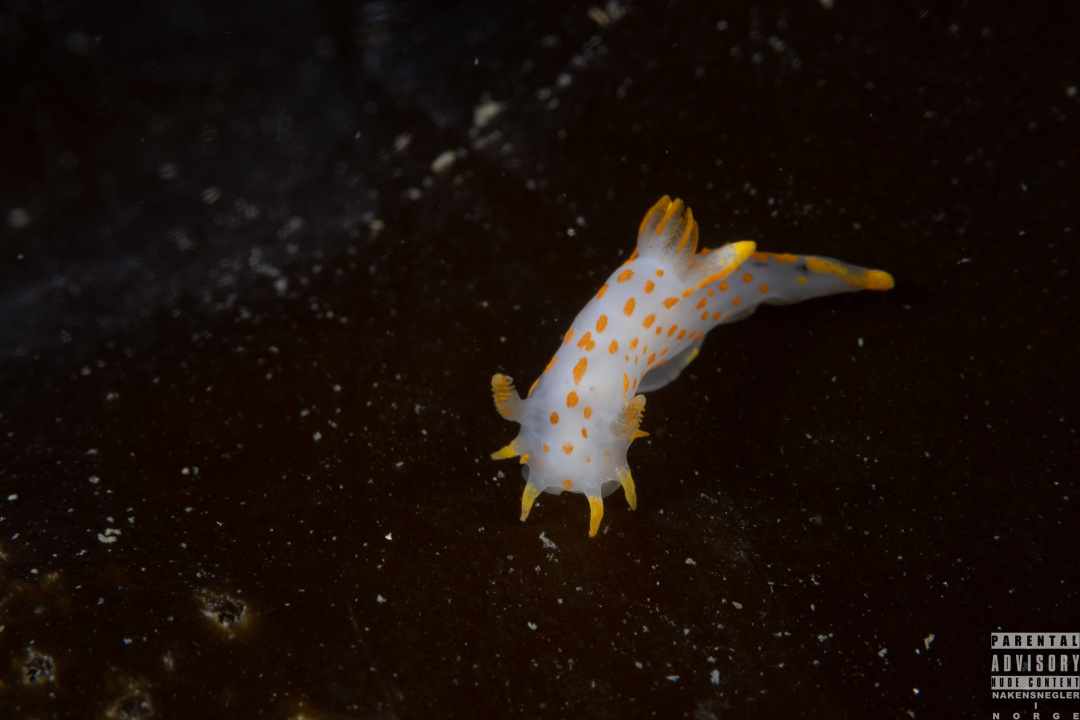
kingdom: Animalia
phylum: Mollusca
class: Gastropoda
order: Nudibranchia
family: Polyceridae
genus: Polycera
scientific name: Polycera quadrilineata
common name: Four-striped polycera
